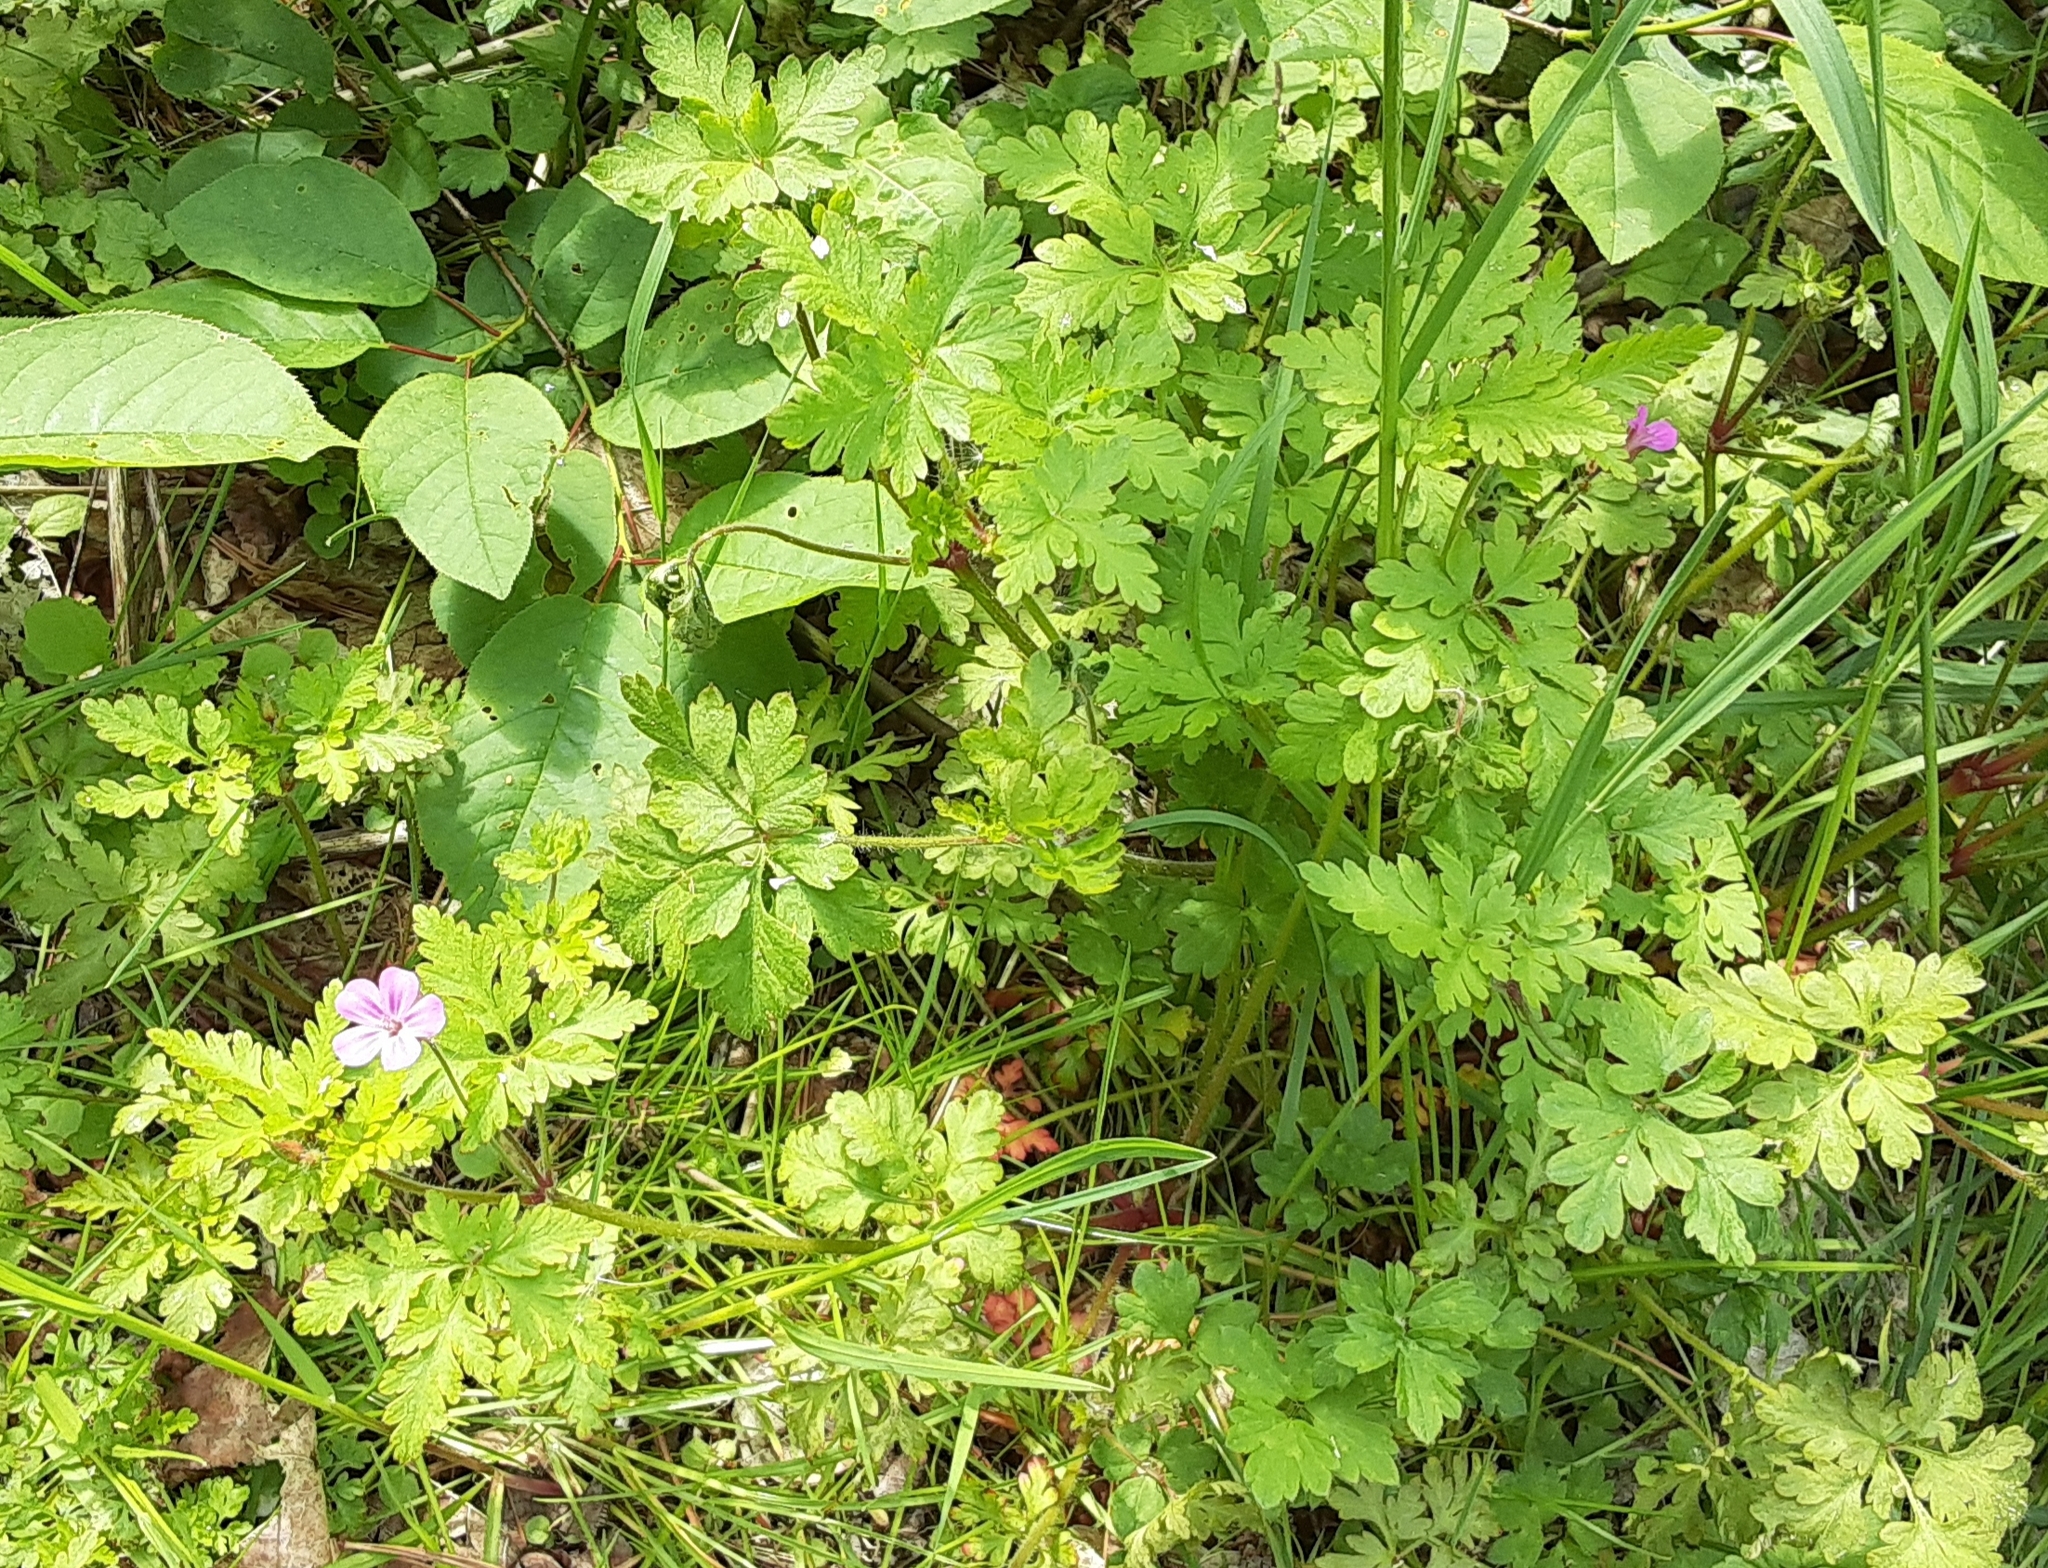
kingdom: Plantae
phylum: Tracheophyta
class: Magnoliopsida
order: Geraniales
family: Geraniaceae
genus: Geranium
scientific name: Geranium robertianum
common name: Herb-robert
